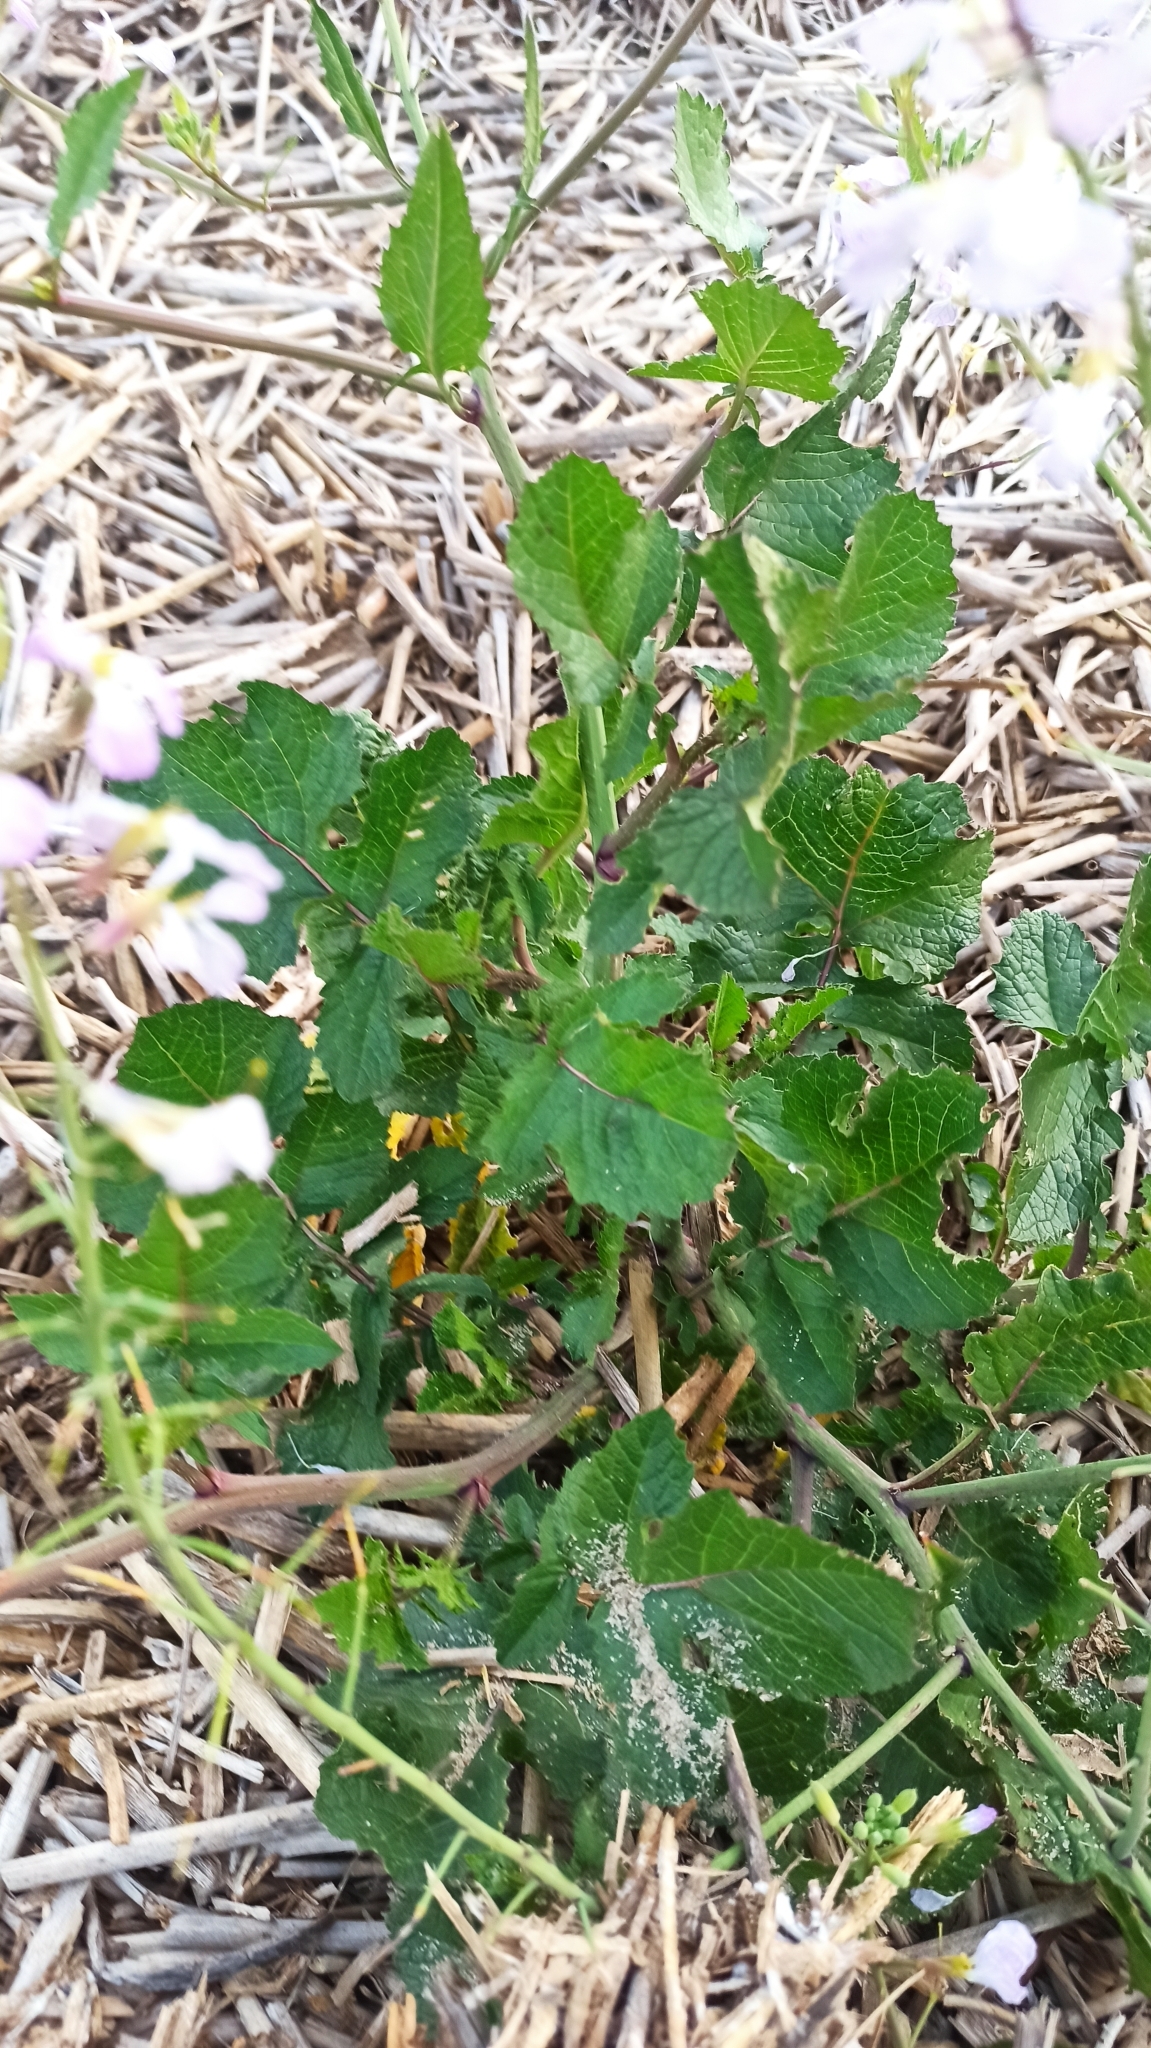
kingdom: Plantae
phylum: Tracheophyta
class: Magnoliopsida
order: Brassicales
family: Brassicaceae
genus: Raphanus
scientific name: Raphanus sativus
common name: Cultivated radish
